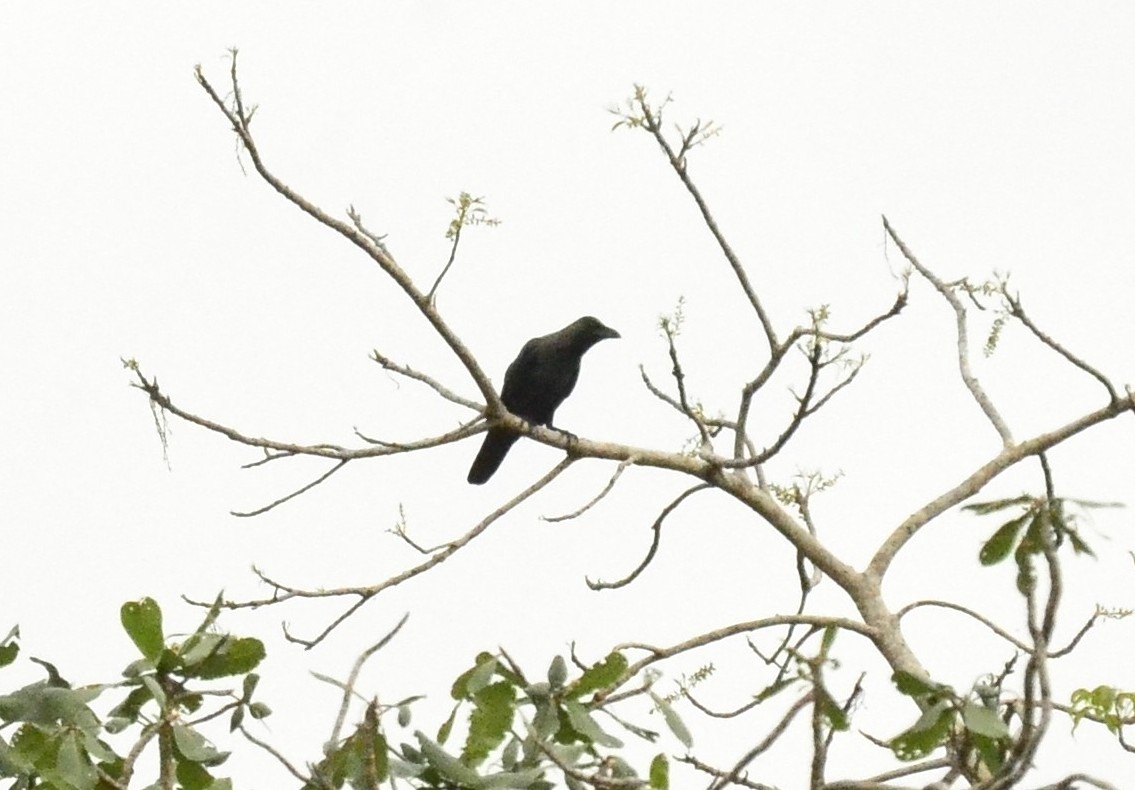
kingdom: Animalia
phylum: Chordata
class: Aves
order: Passeriformes
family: Corvidae
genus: Corvus
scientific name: Corvus splendens
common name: House crow
